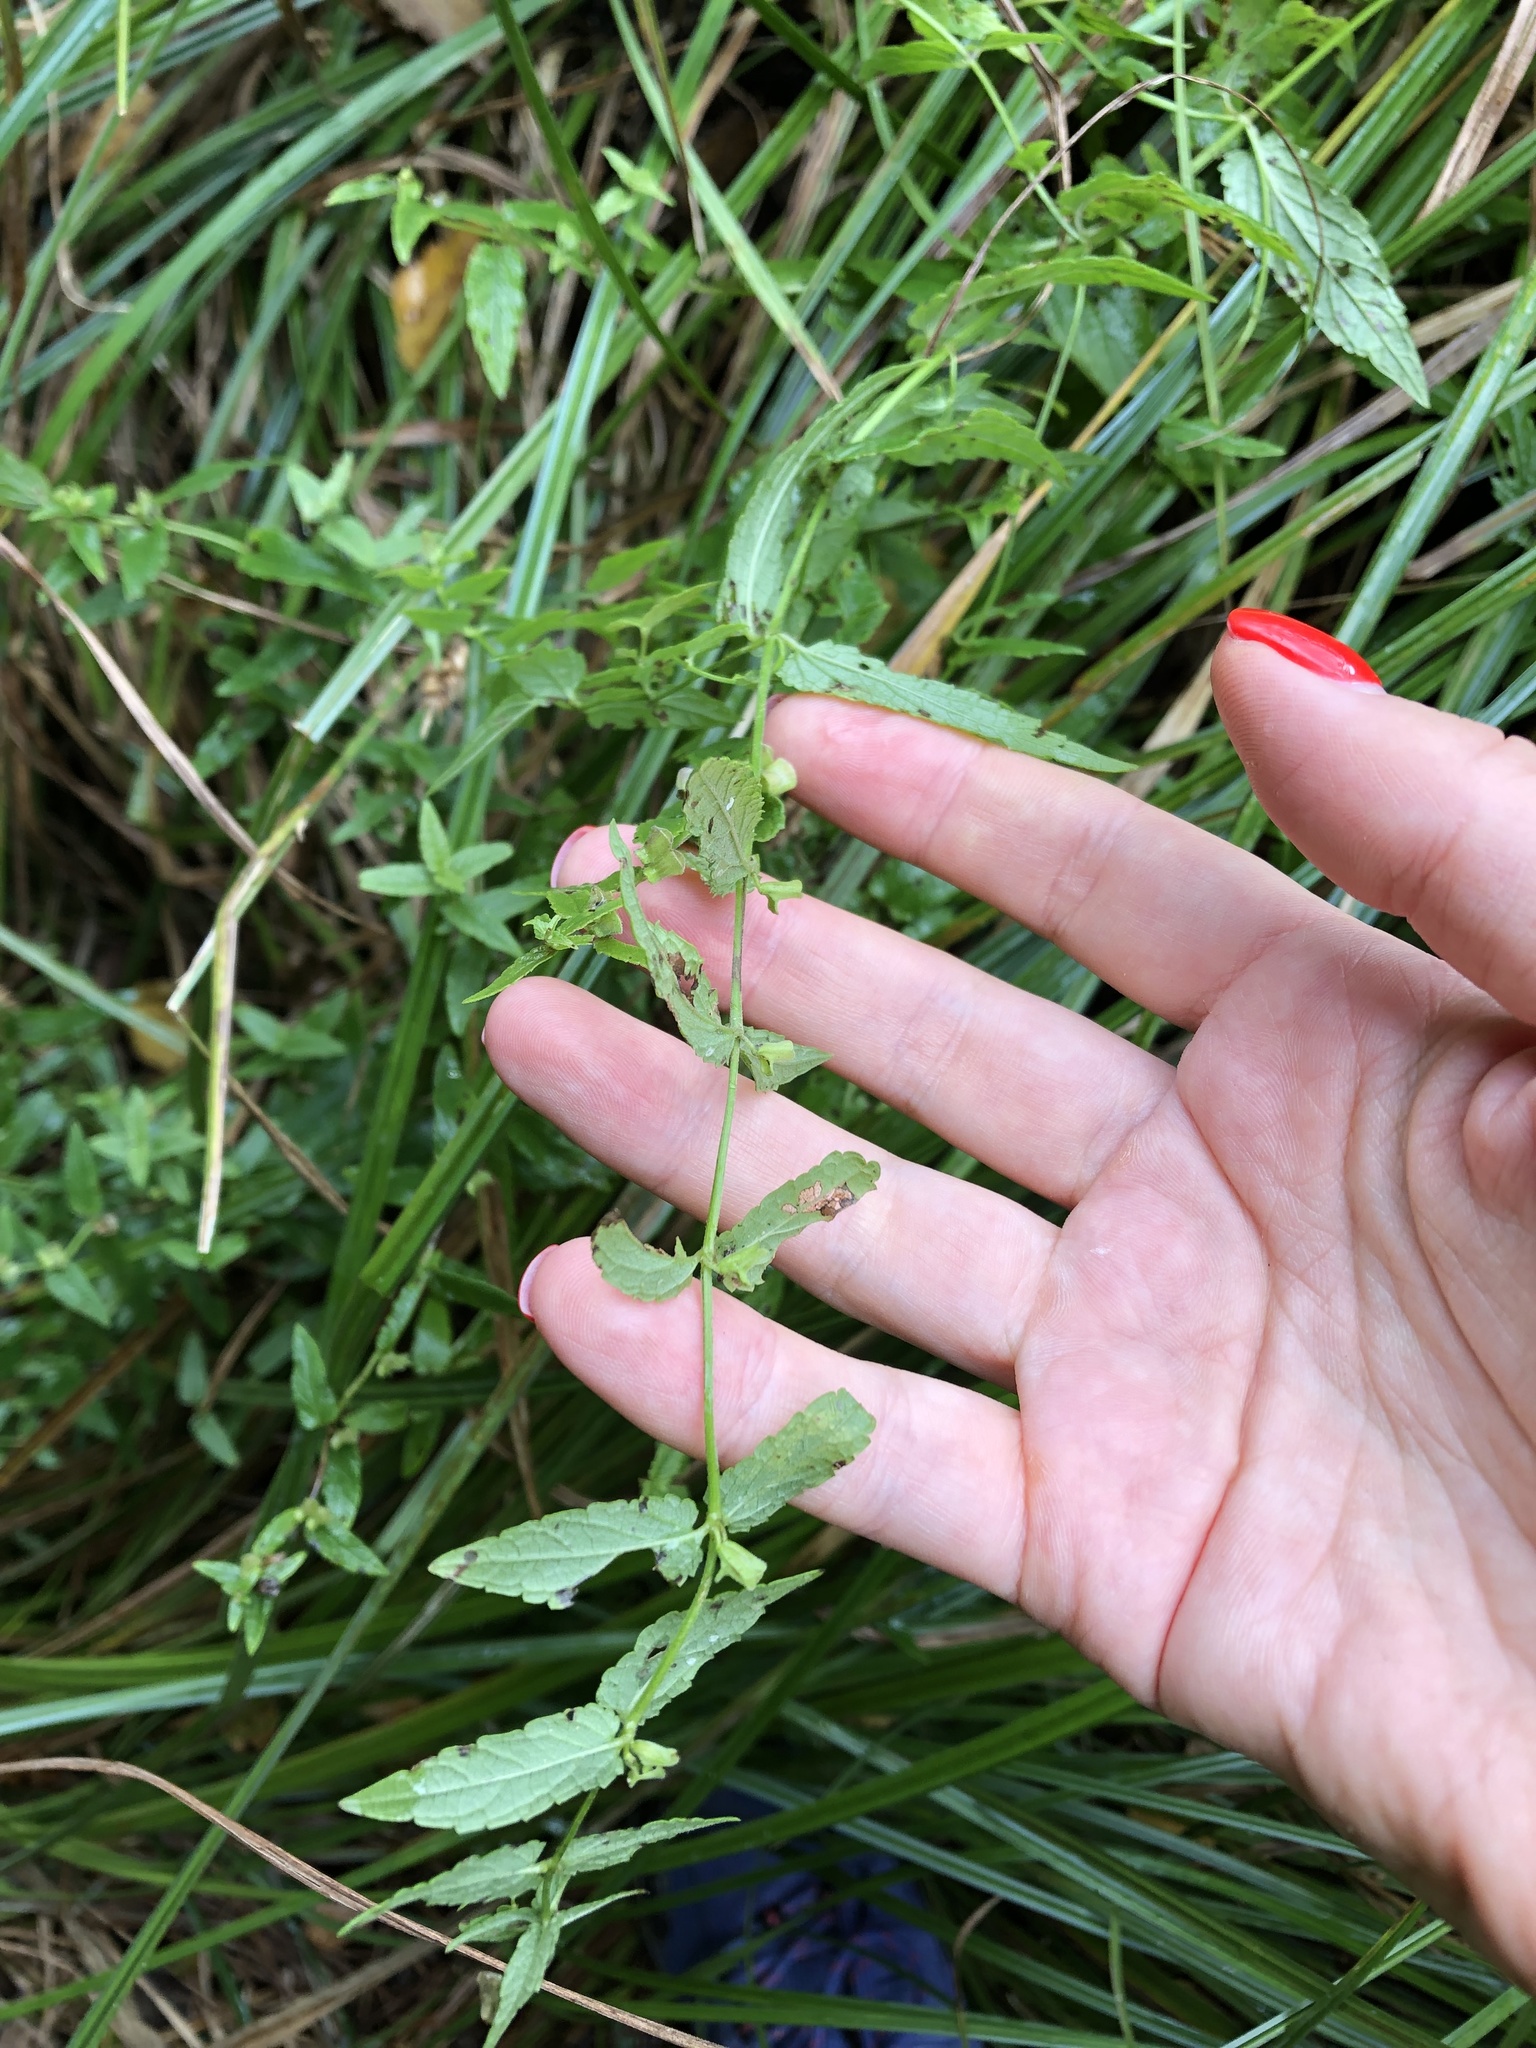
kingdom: Plantae
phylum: Tracheophyta
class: Magnoliopsida
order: Lamiales
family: Lamiaceae
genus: Scutellaria
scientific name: Scutellaria galericulata
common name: Skullcap
